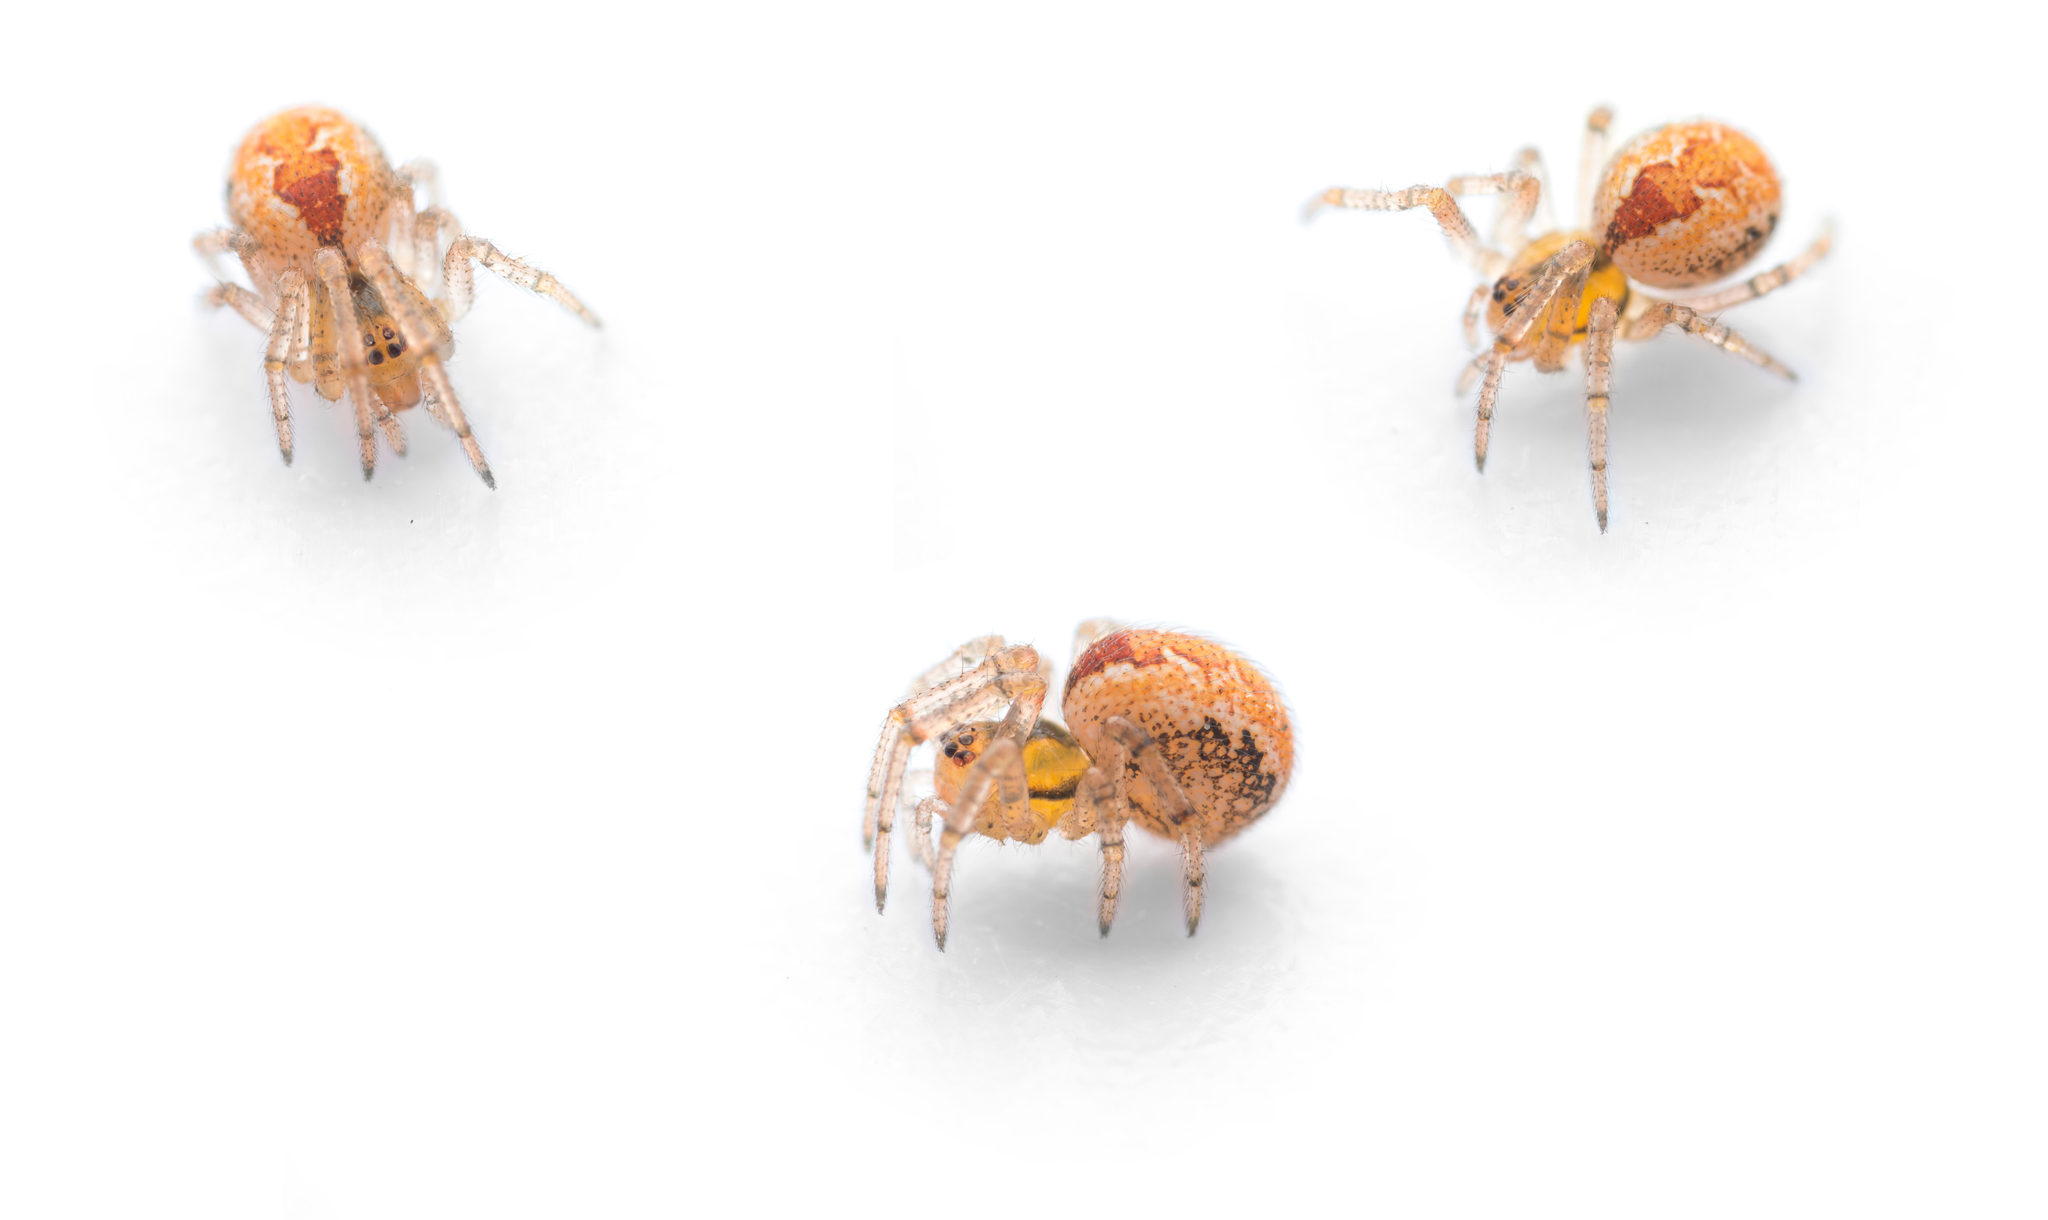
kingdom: Animalia
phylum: Arthropoda
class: Arachnida
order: Araneae
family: Theridiidae
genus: Kochiura
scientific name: Kochiura aulica
